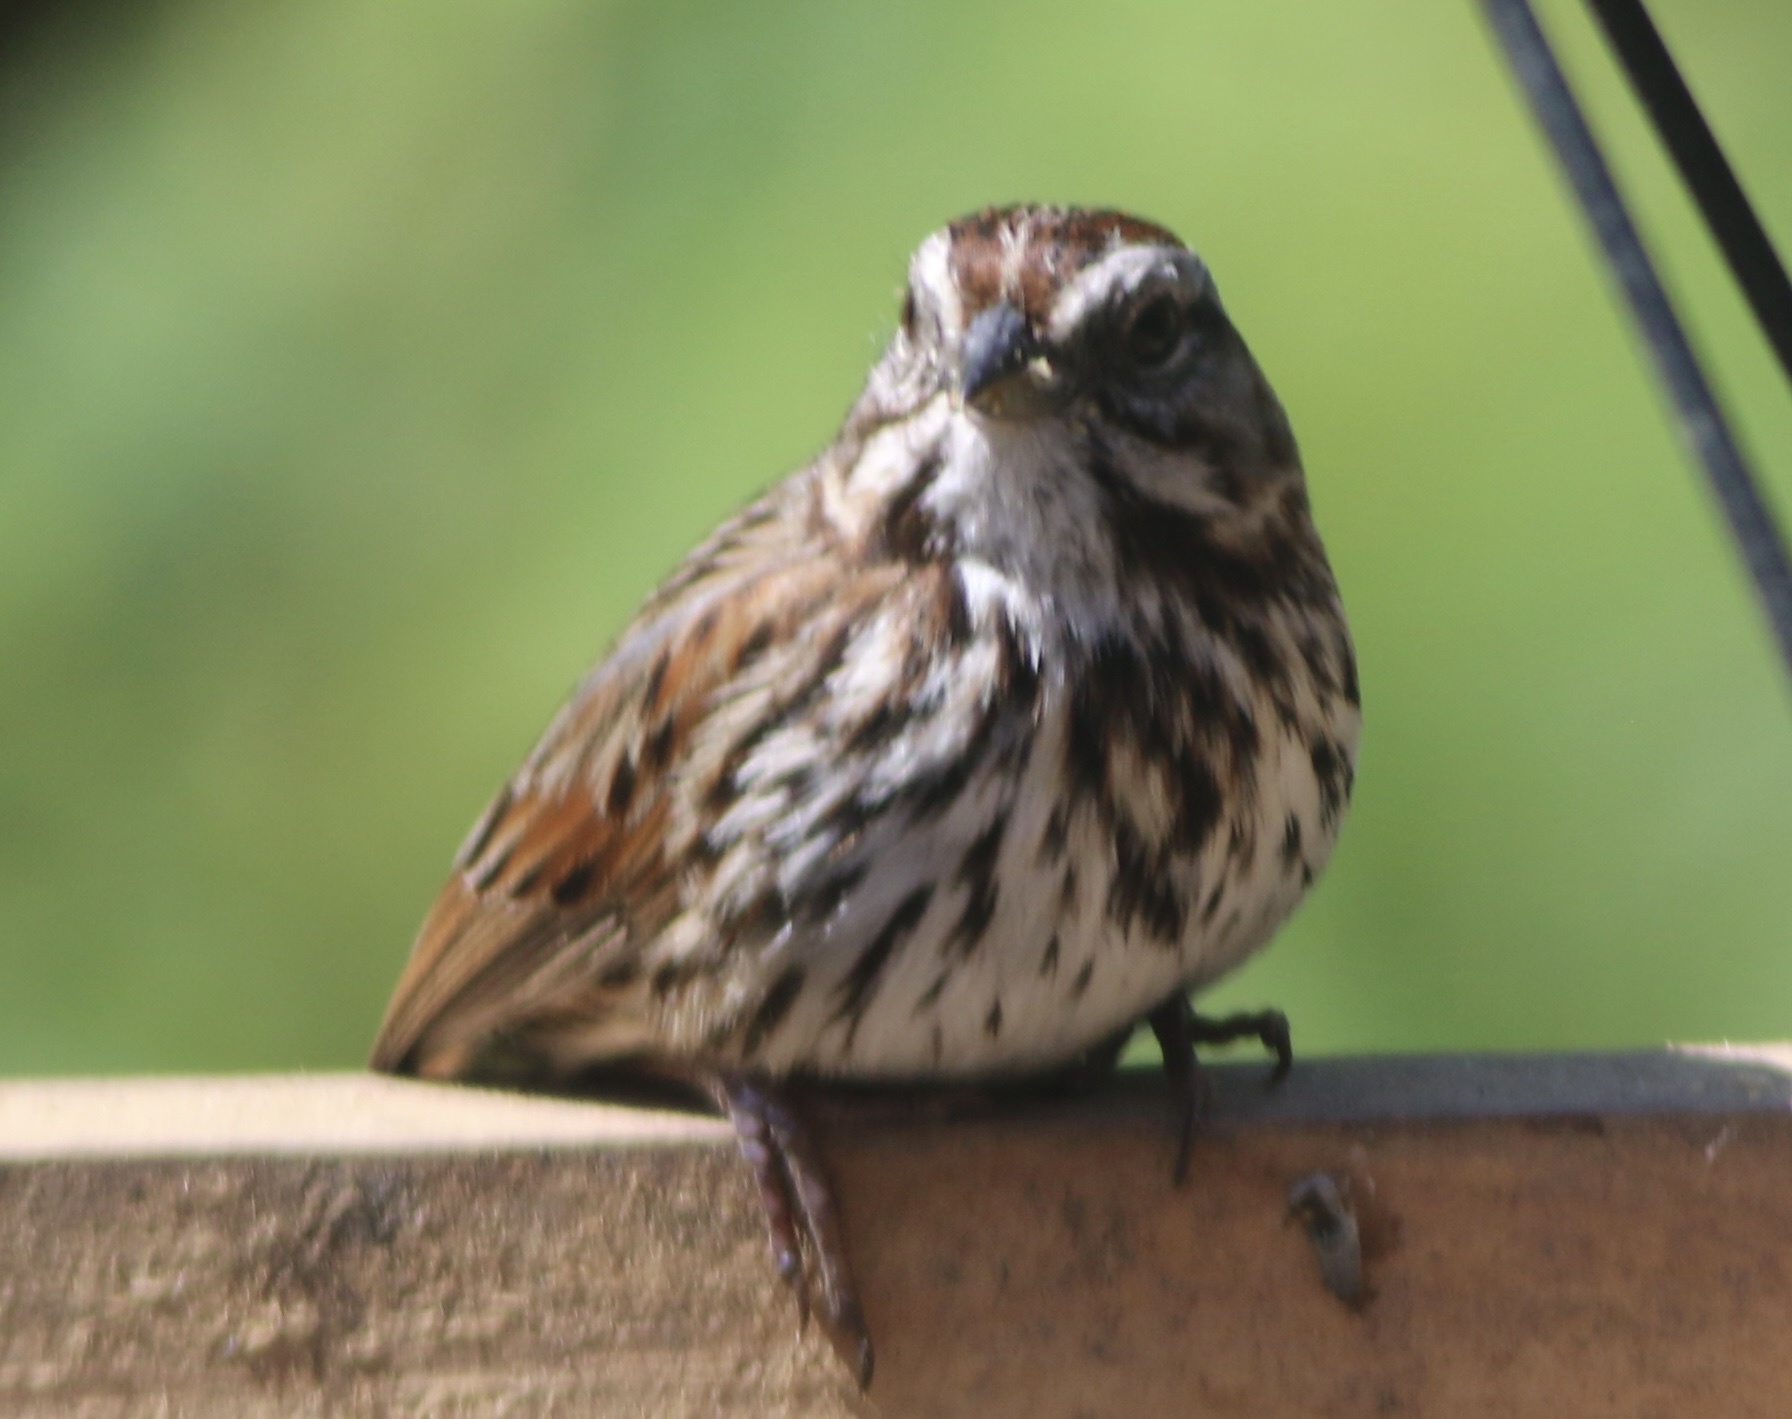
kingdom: Animalia
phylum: Chordata
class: Aves
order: Passeriformes
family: Passerellidae
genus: Melospiza
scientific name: Melospiza melodia
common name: Song sparrow
